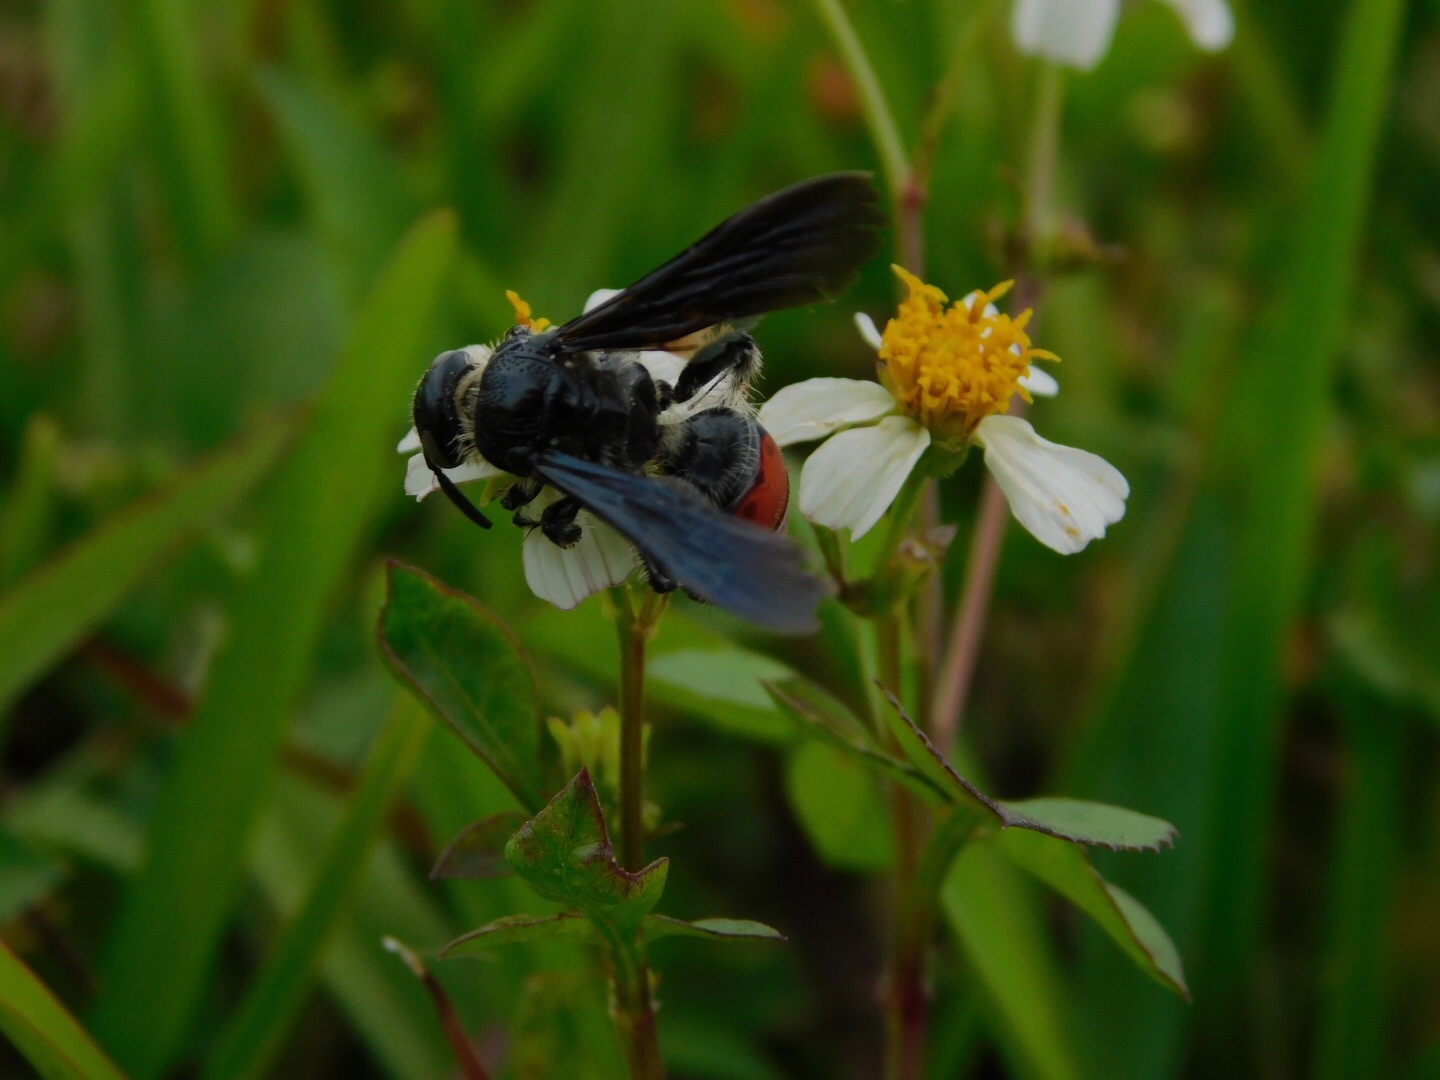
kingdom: Animalia
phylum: Arthropoda
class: Insecta
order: Hymenoptera
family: Scoliidae
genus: Dielis
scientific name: Dielis dorsata
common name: Scoliid wasp
